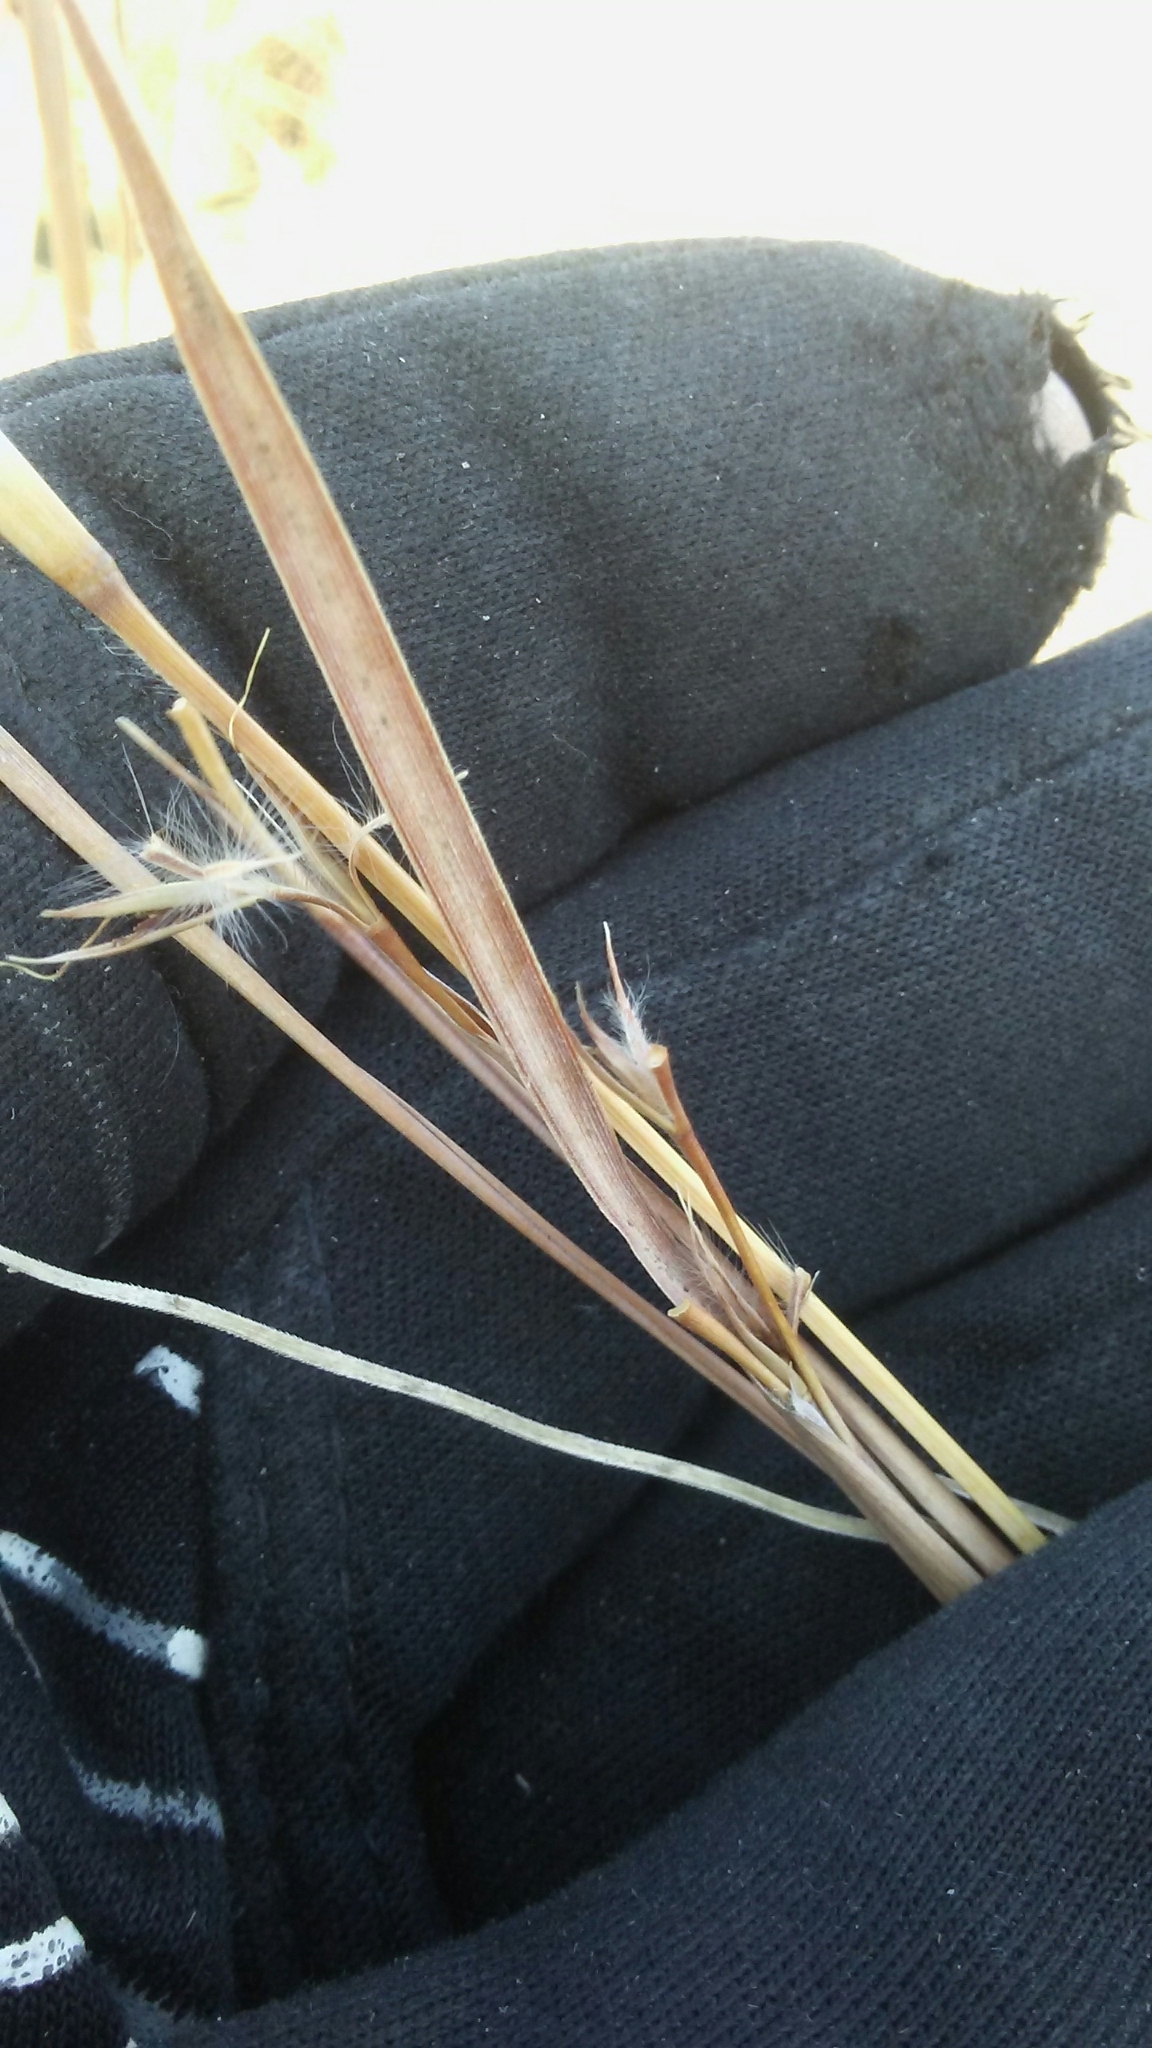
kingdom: Plantae
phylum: Tracheophyta
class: Liliopsida
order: Poales
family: Poaceae
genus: Schizachyrium
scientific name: Schizachyrium scoparium
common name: Little bluestem
